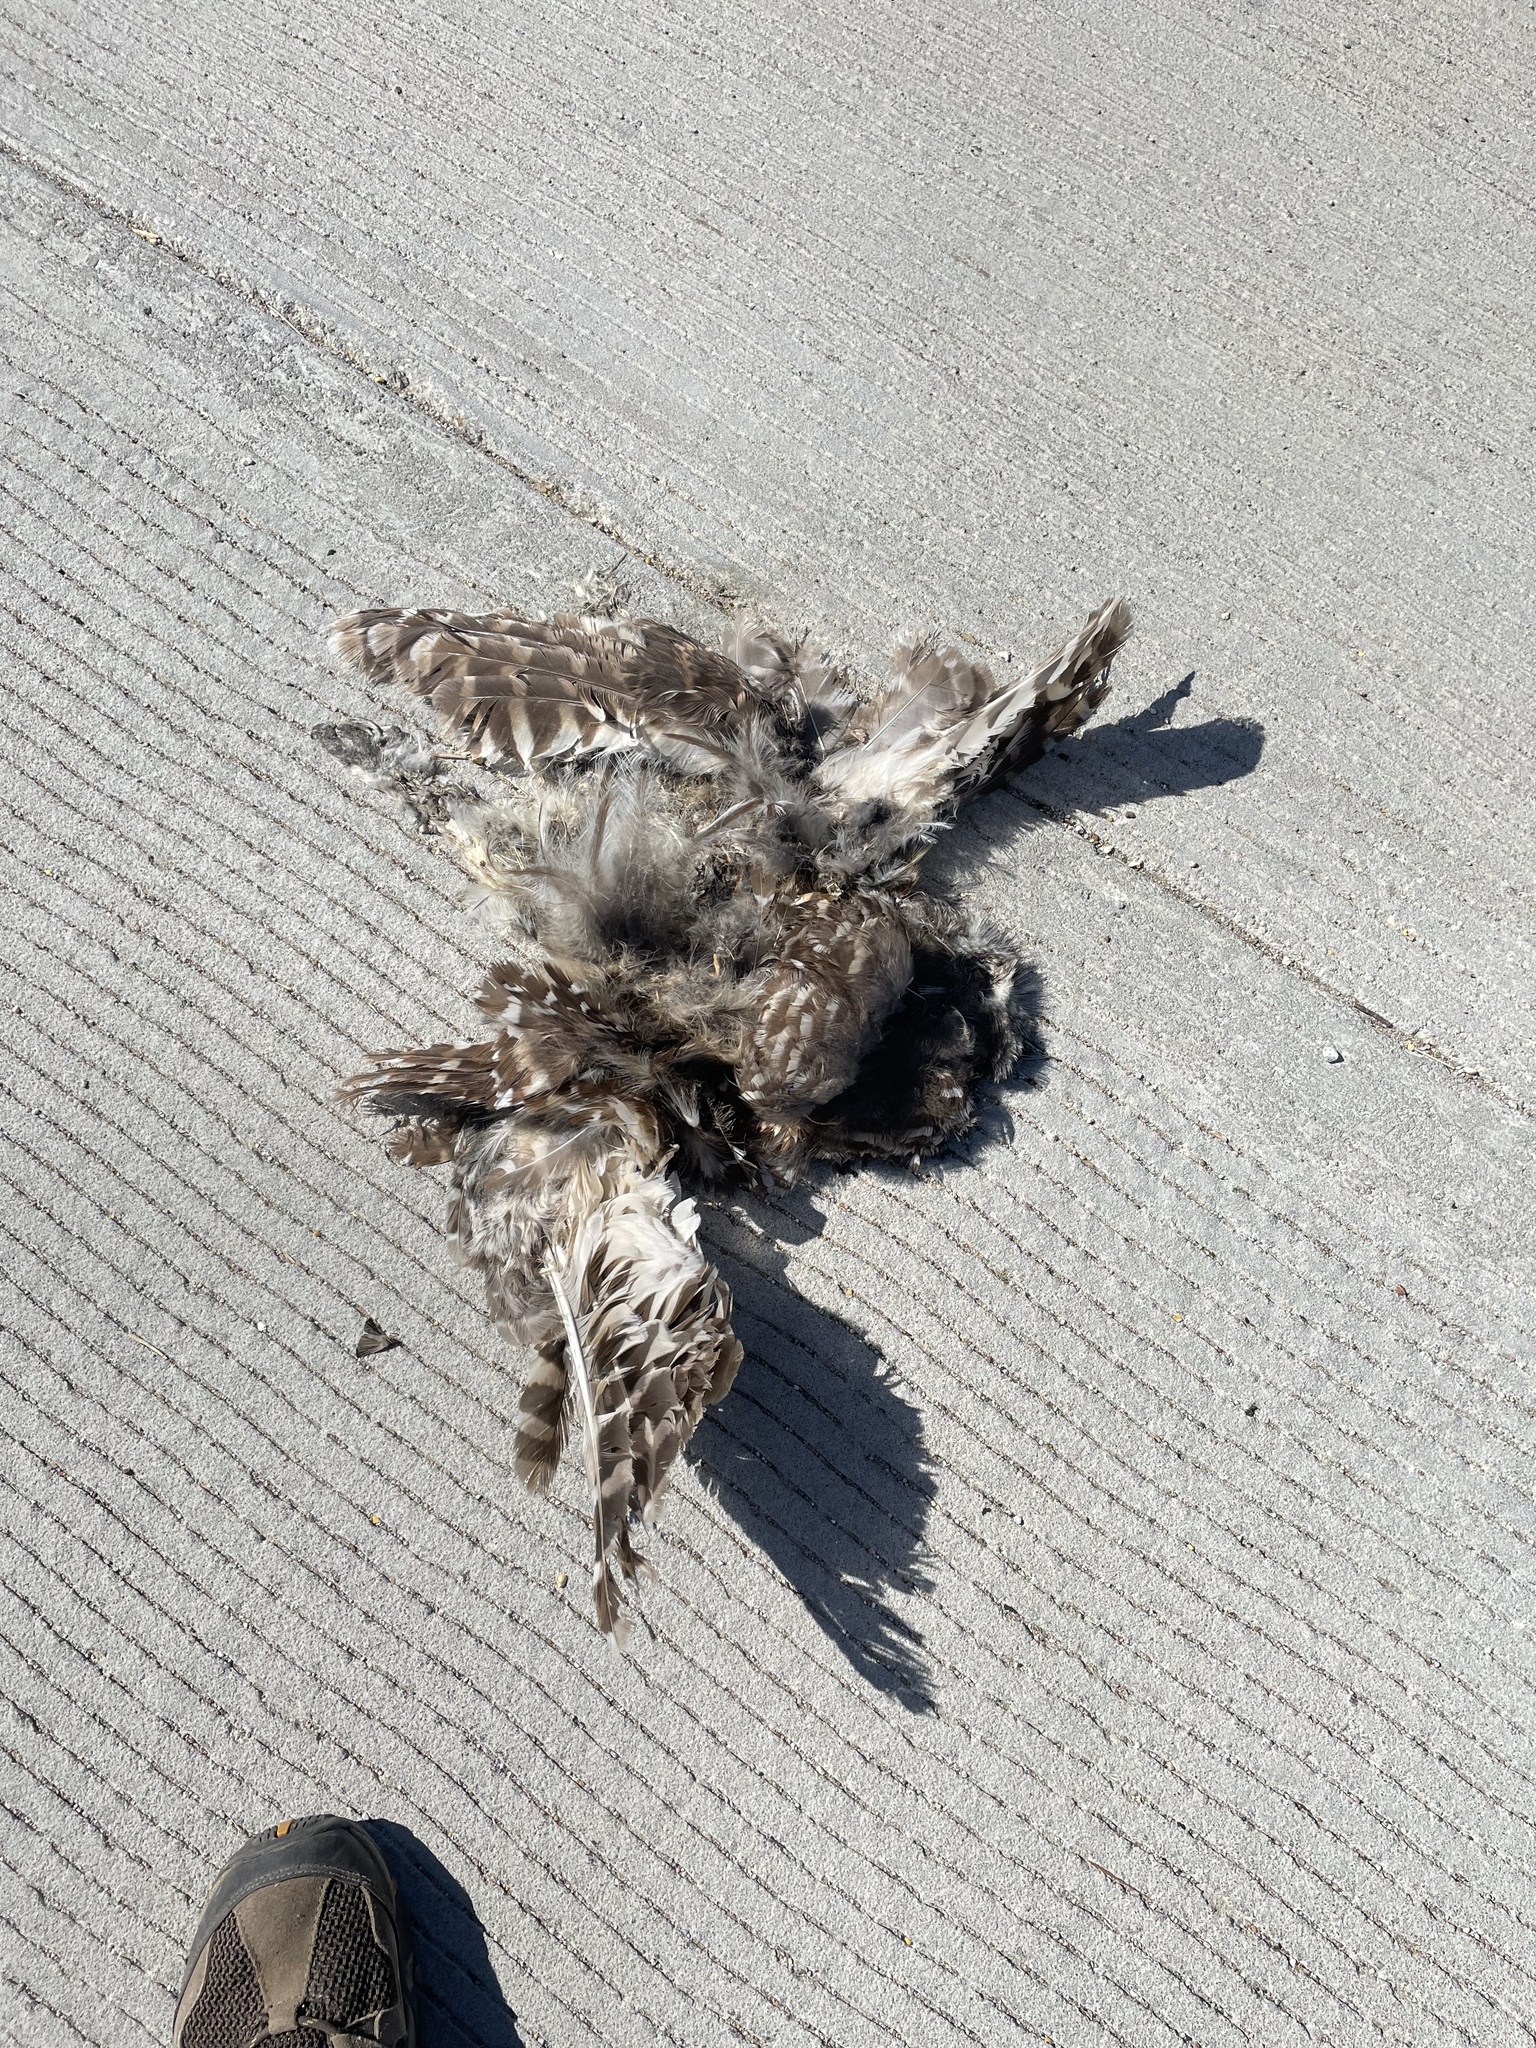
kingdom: Animalia
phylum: Chordata
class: Aves
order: Strigiformes
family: Strigidae
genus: Strix
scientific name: Strix varia
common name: Barred owl
